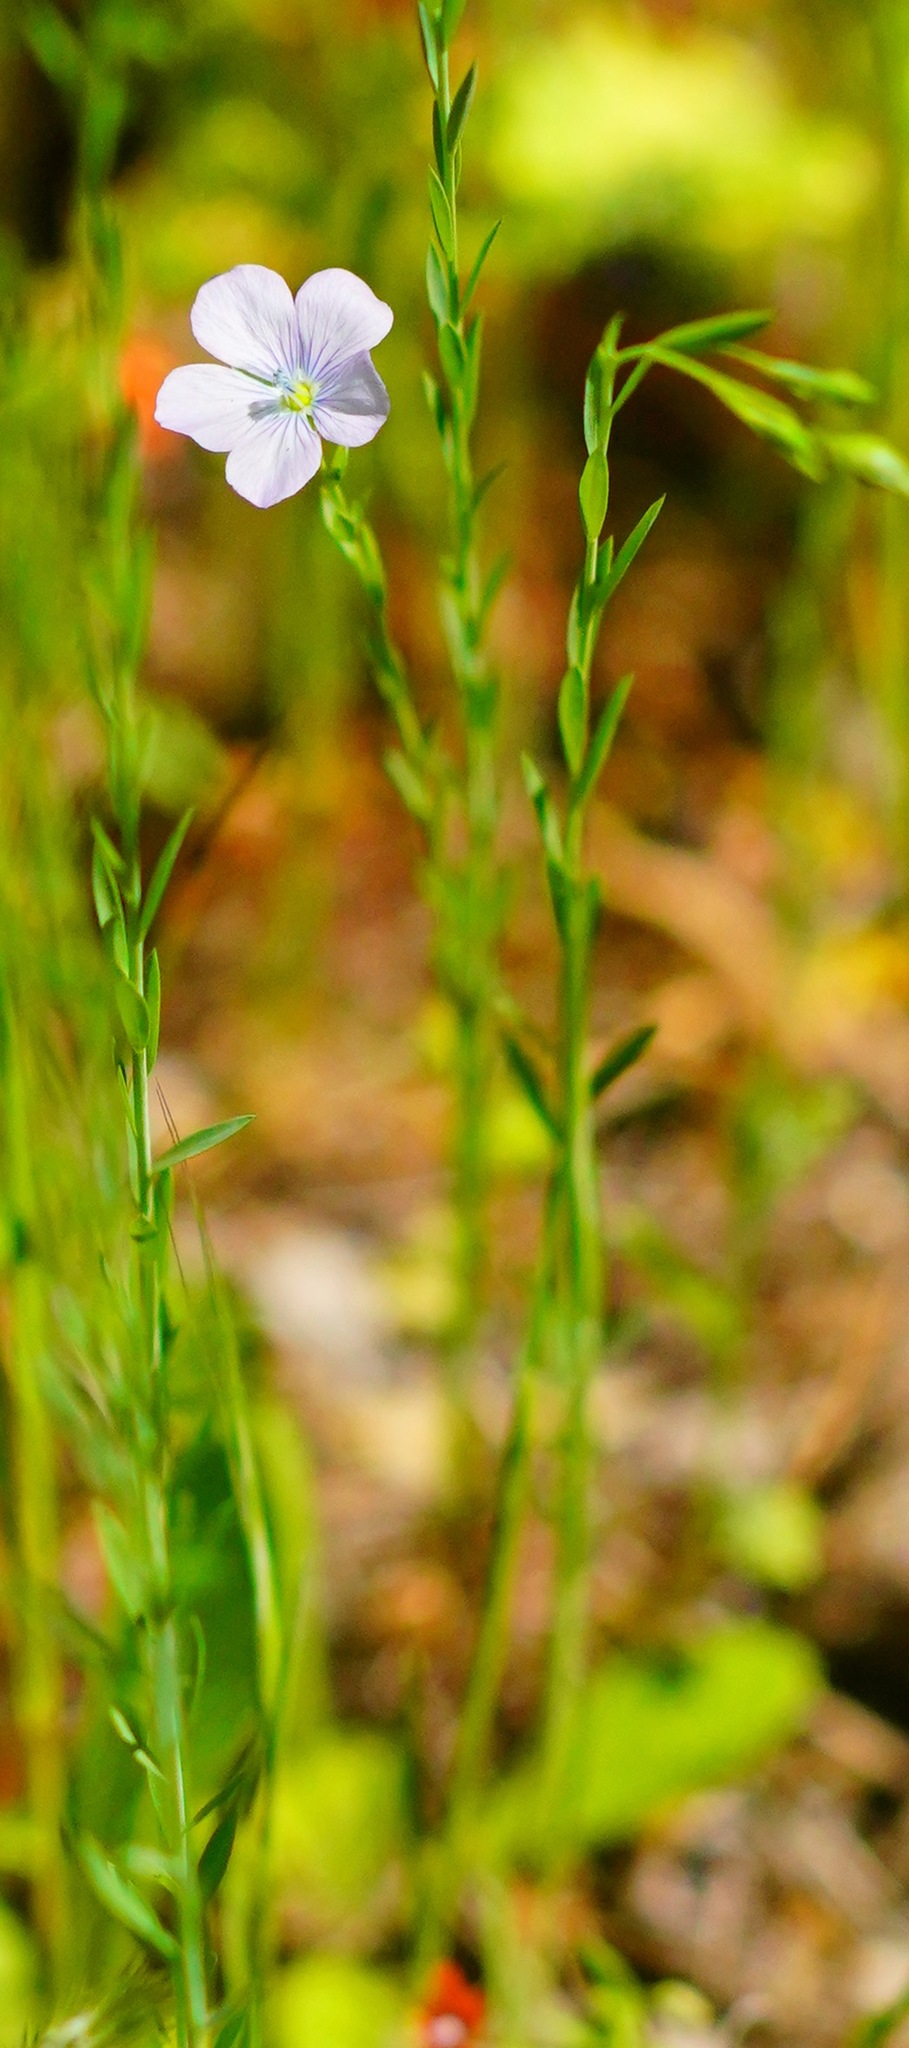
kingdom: Plantae
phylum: Tracheophyta
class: Magnoliopsida
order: Malpighiales
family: Linaceae
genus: Linum
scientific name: Linum usitatissimum
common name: Flax
